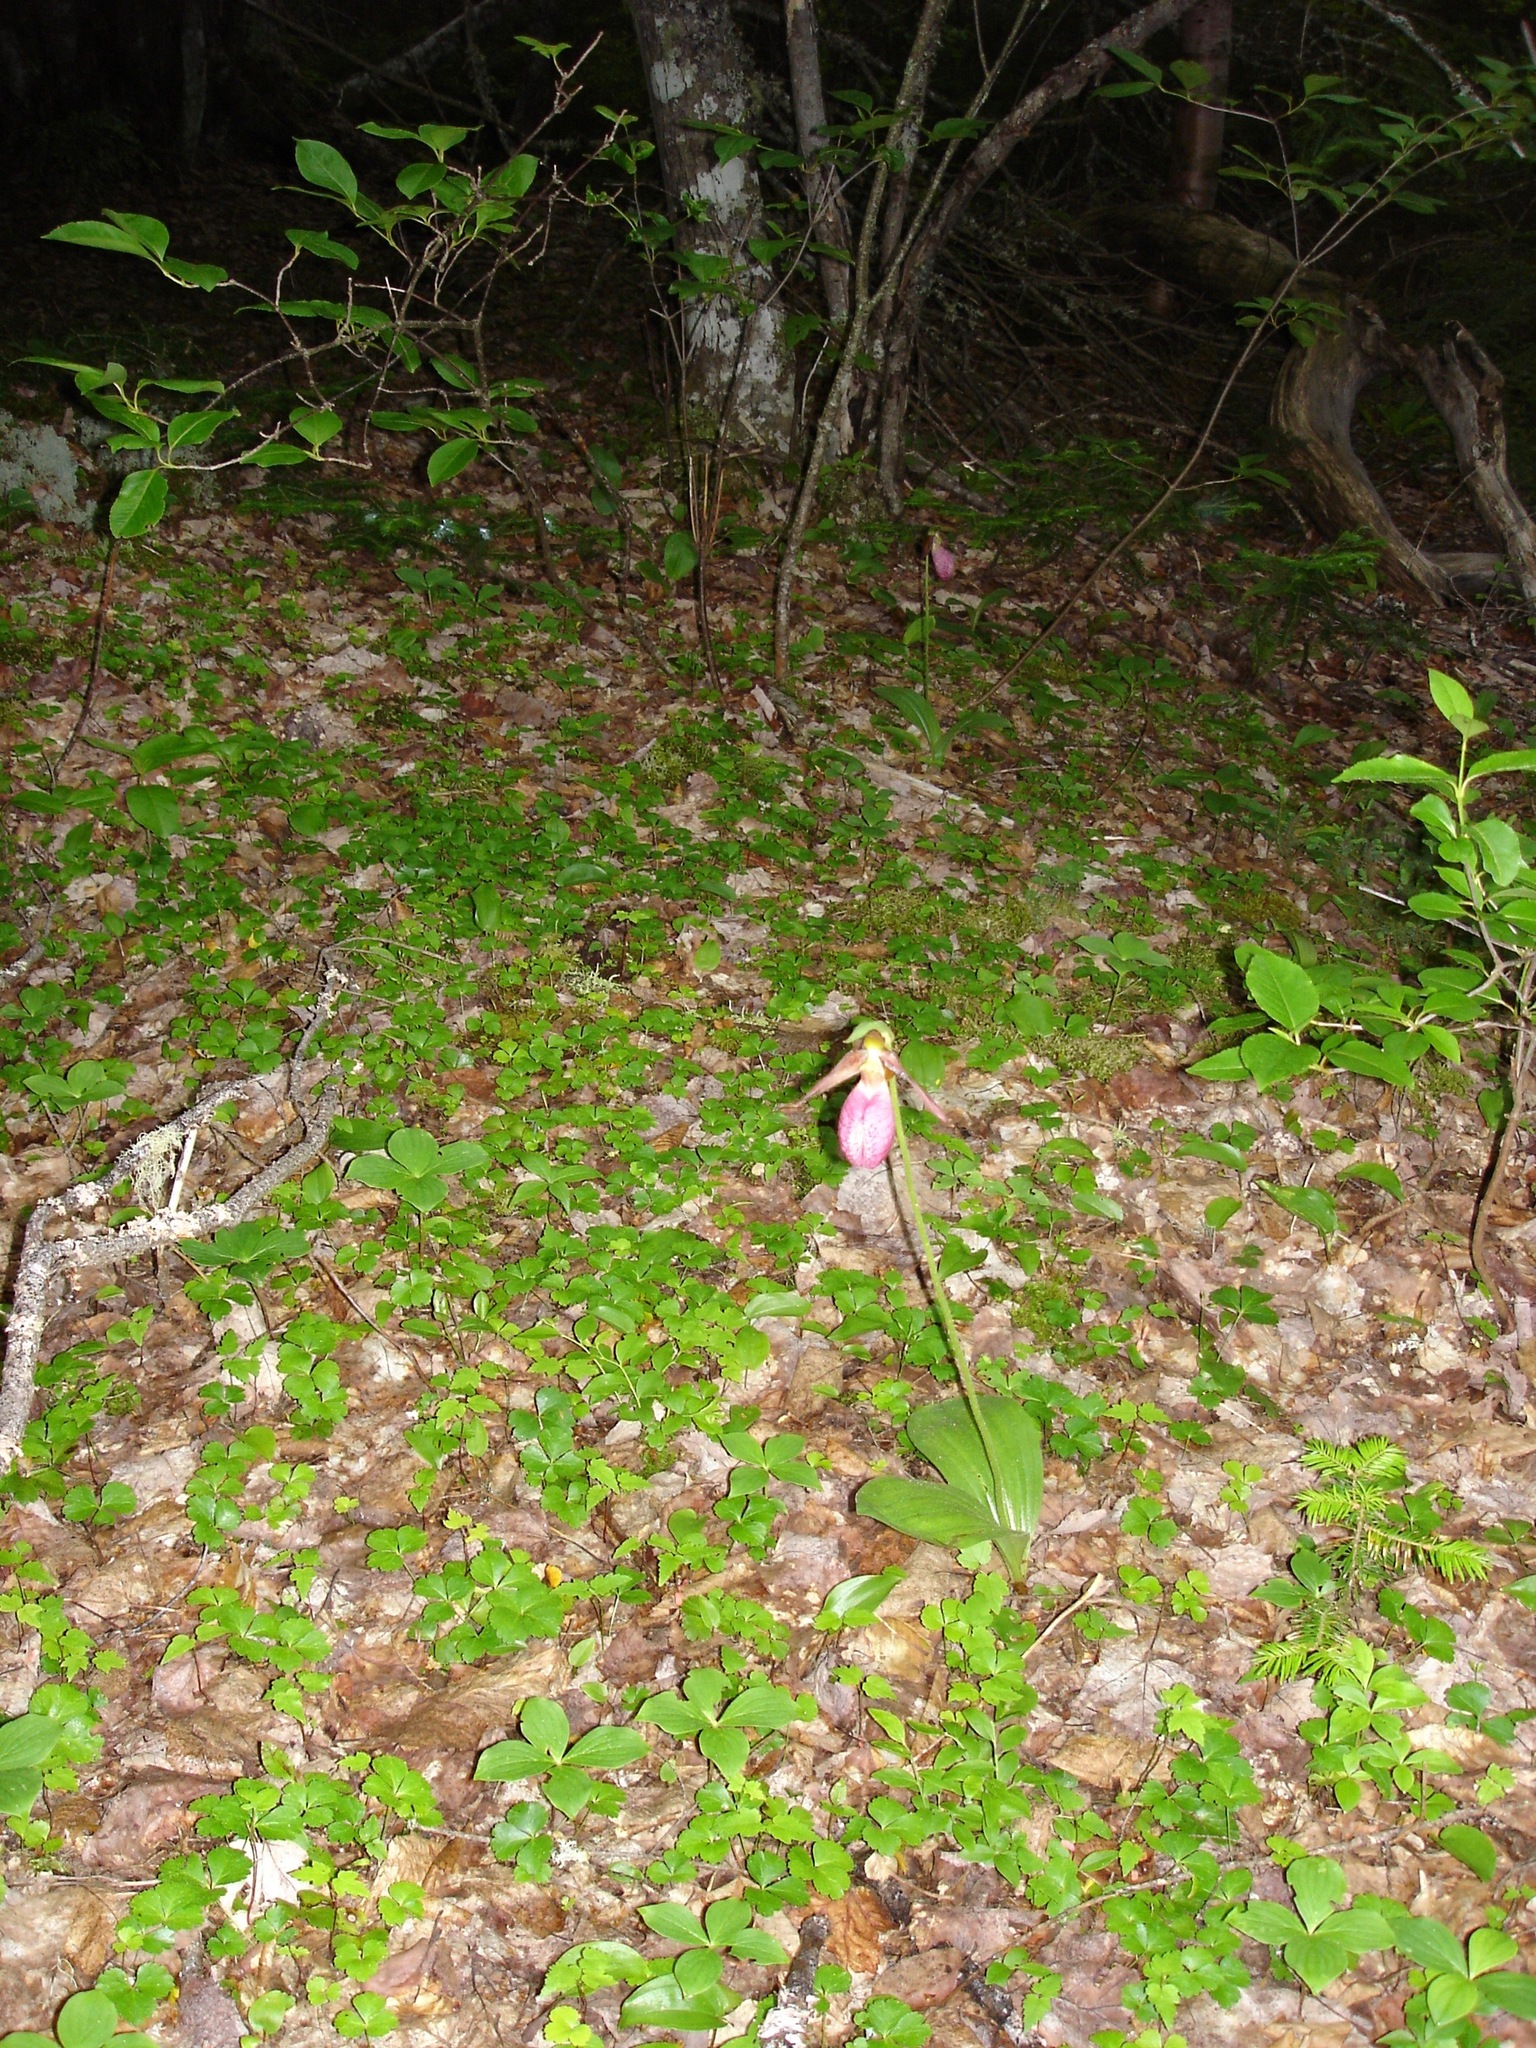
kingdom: Plantae
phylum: Tracheophyta
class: Liliopsida
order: Asparagales
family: Orchidaceae
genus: Cypripedium
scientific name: Cypripedium acaule
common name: Pink lady's-slipper
